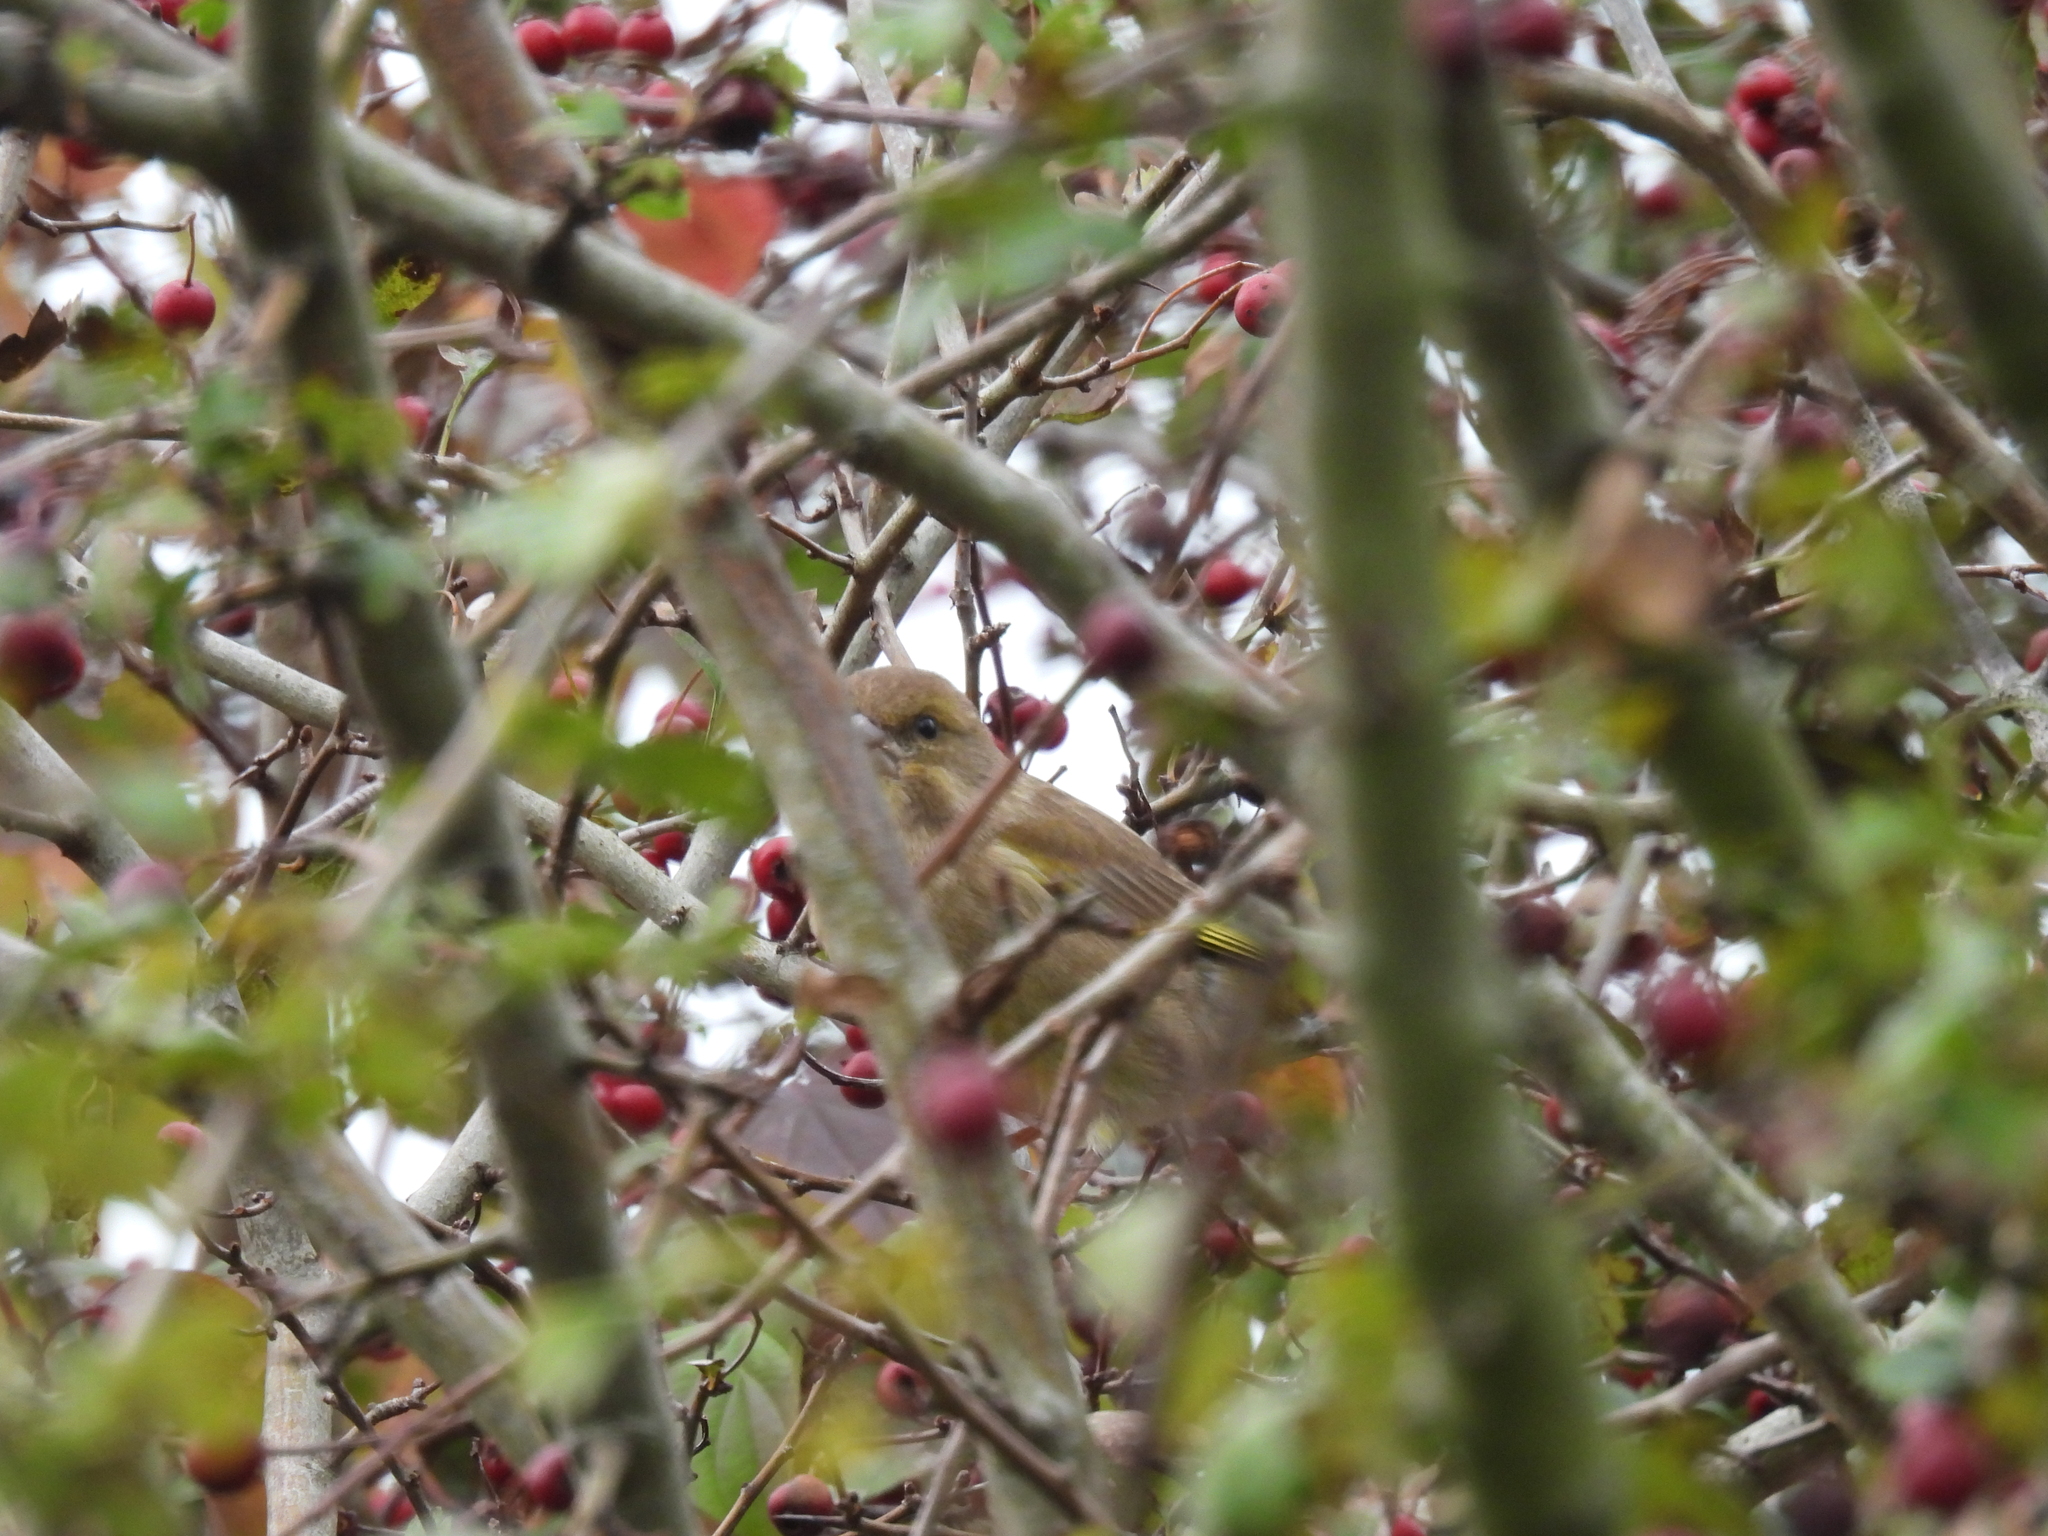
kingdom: Plantae
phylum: Tracheophyta
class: Liliopsida
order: Poales
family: Poaceae
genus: Chloris
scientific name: Chloris chloris
